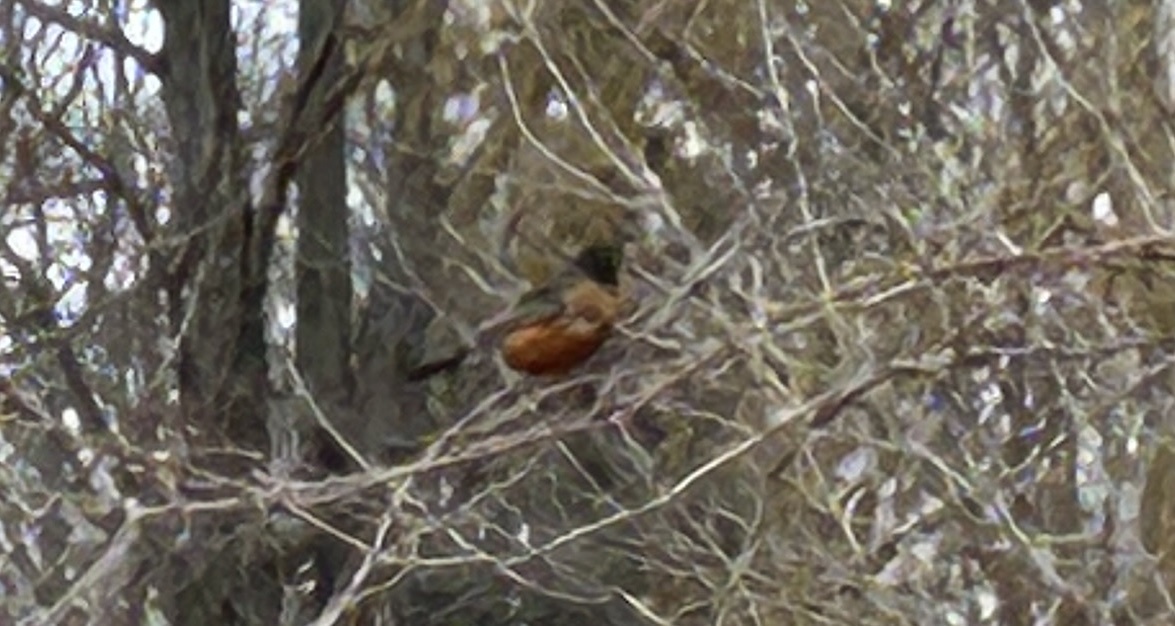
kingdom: Animalia
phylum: Chordata
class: Aves
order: Passeriformes
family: Turdidae
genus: Turdus
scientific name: Turdus migratorius
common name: American robin
